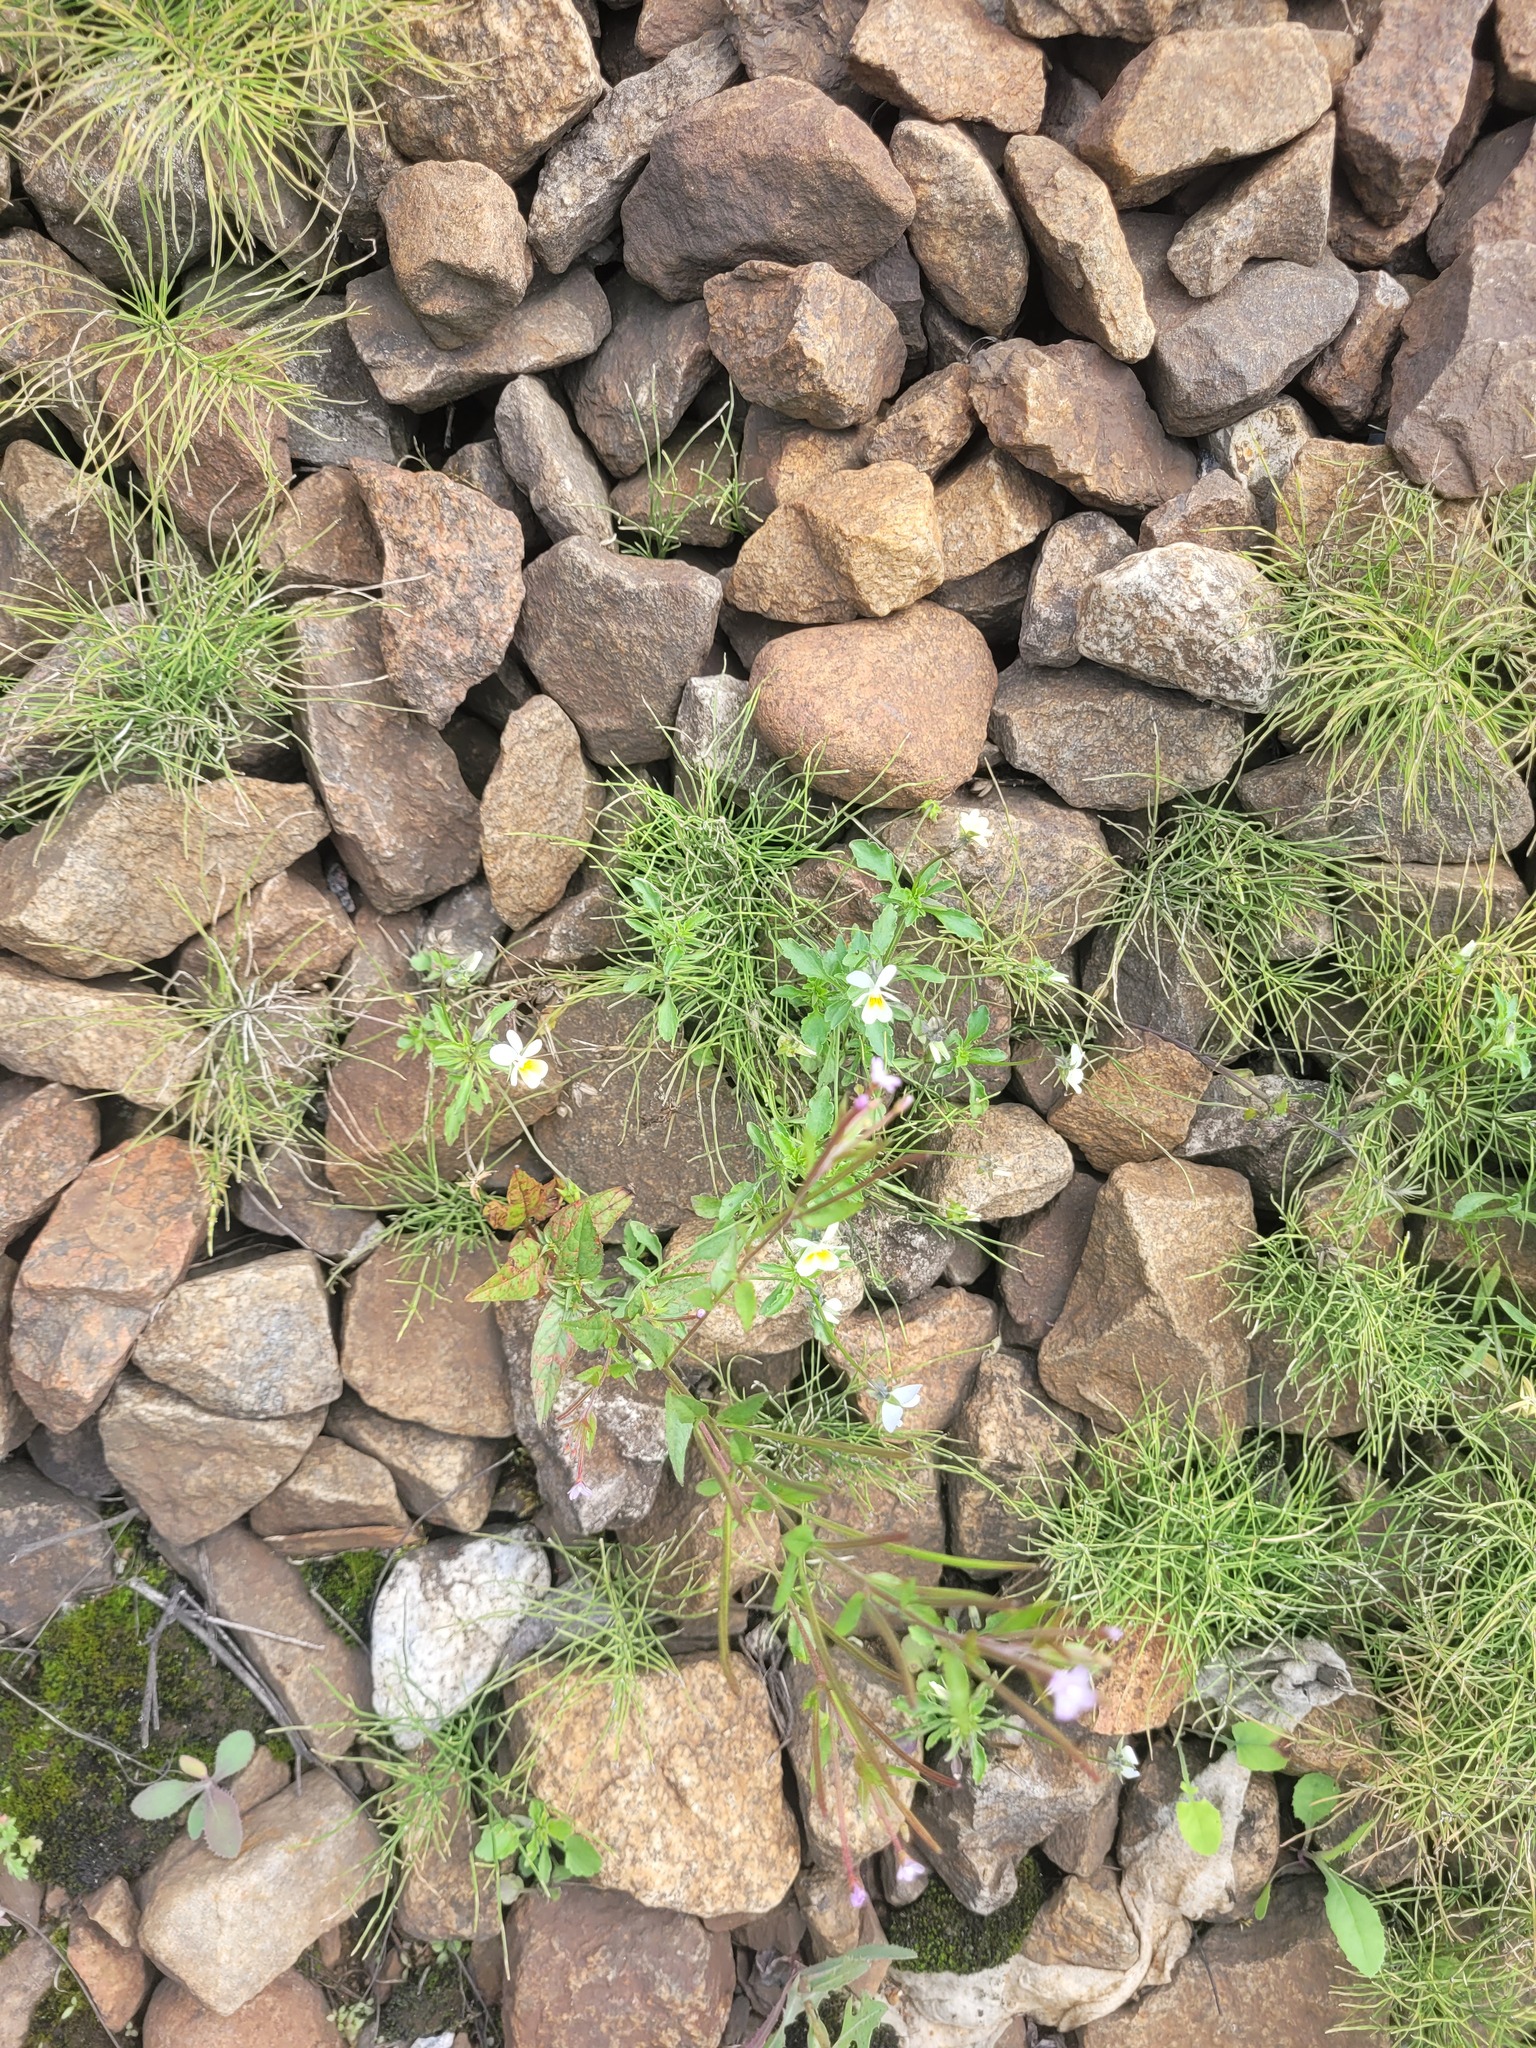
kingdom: Plantae
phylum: Tracheophyta
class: Magnoliopsida
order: Malpighiales
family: Violaceae
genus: Viola
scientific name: Viola arvensis
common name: Field pansy
